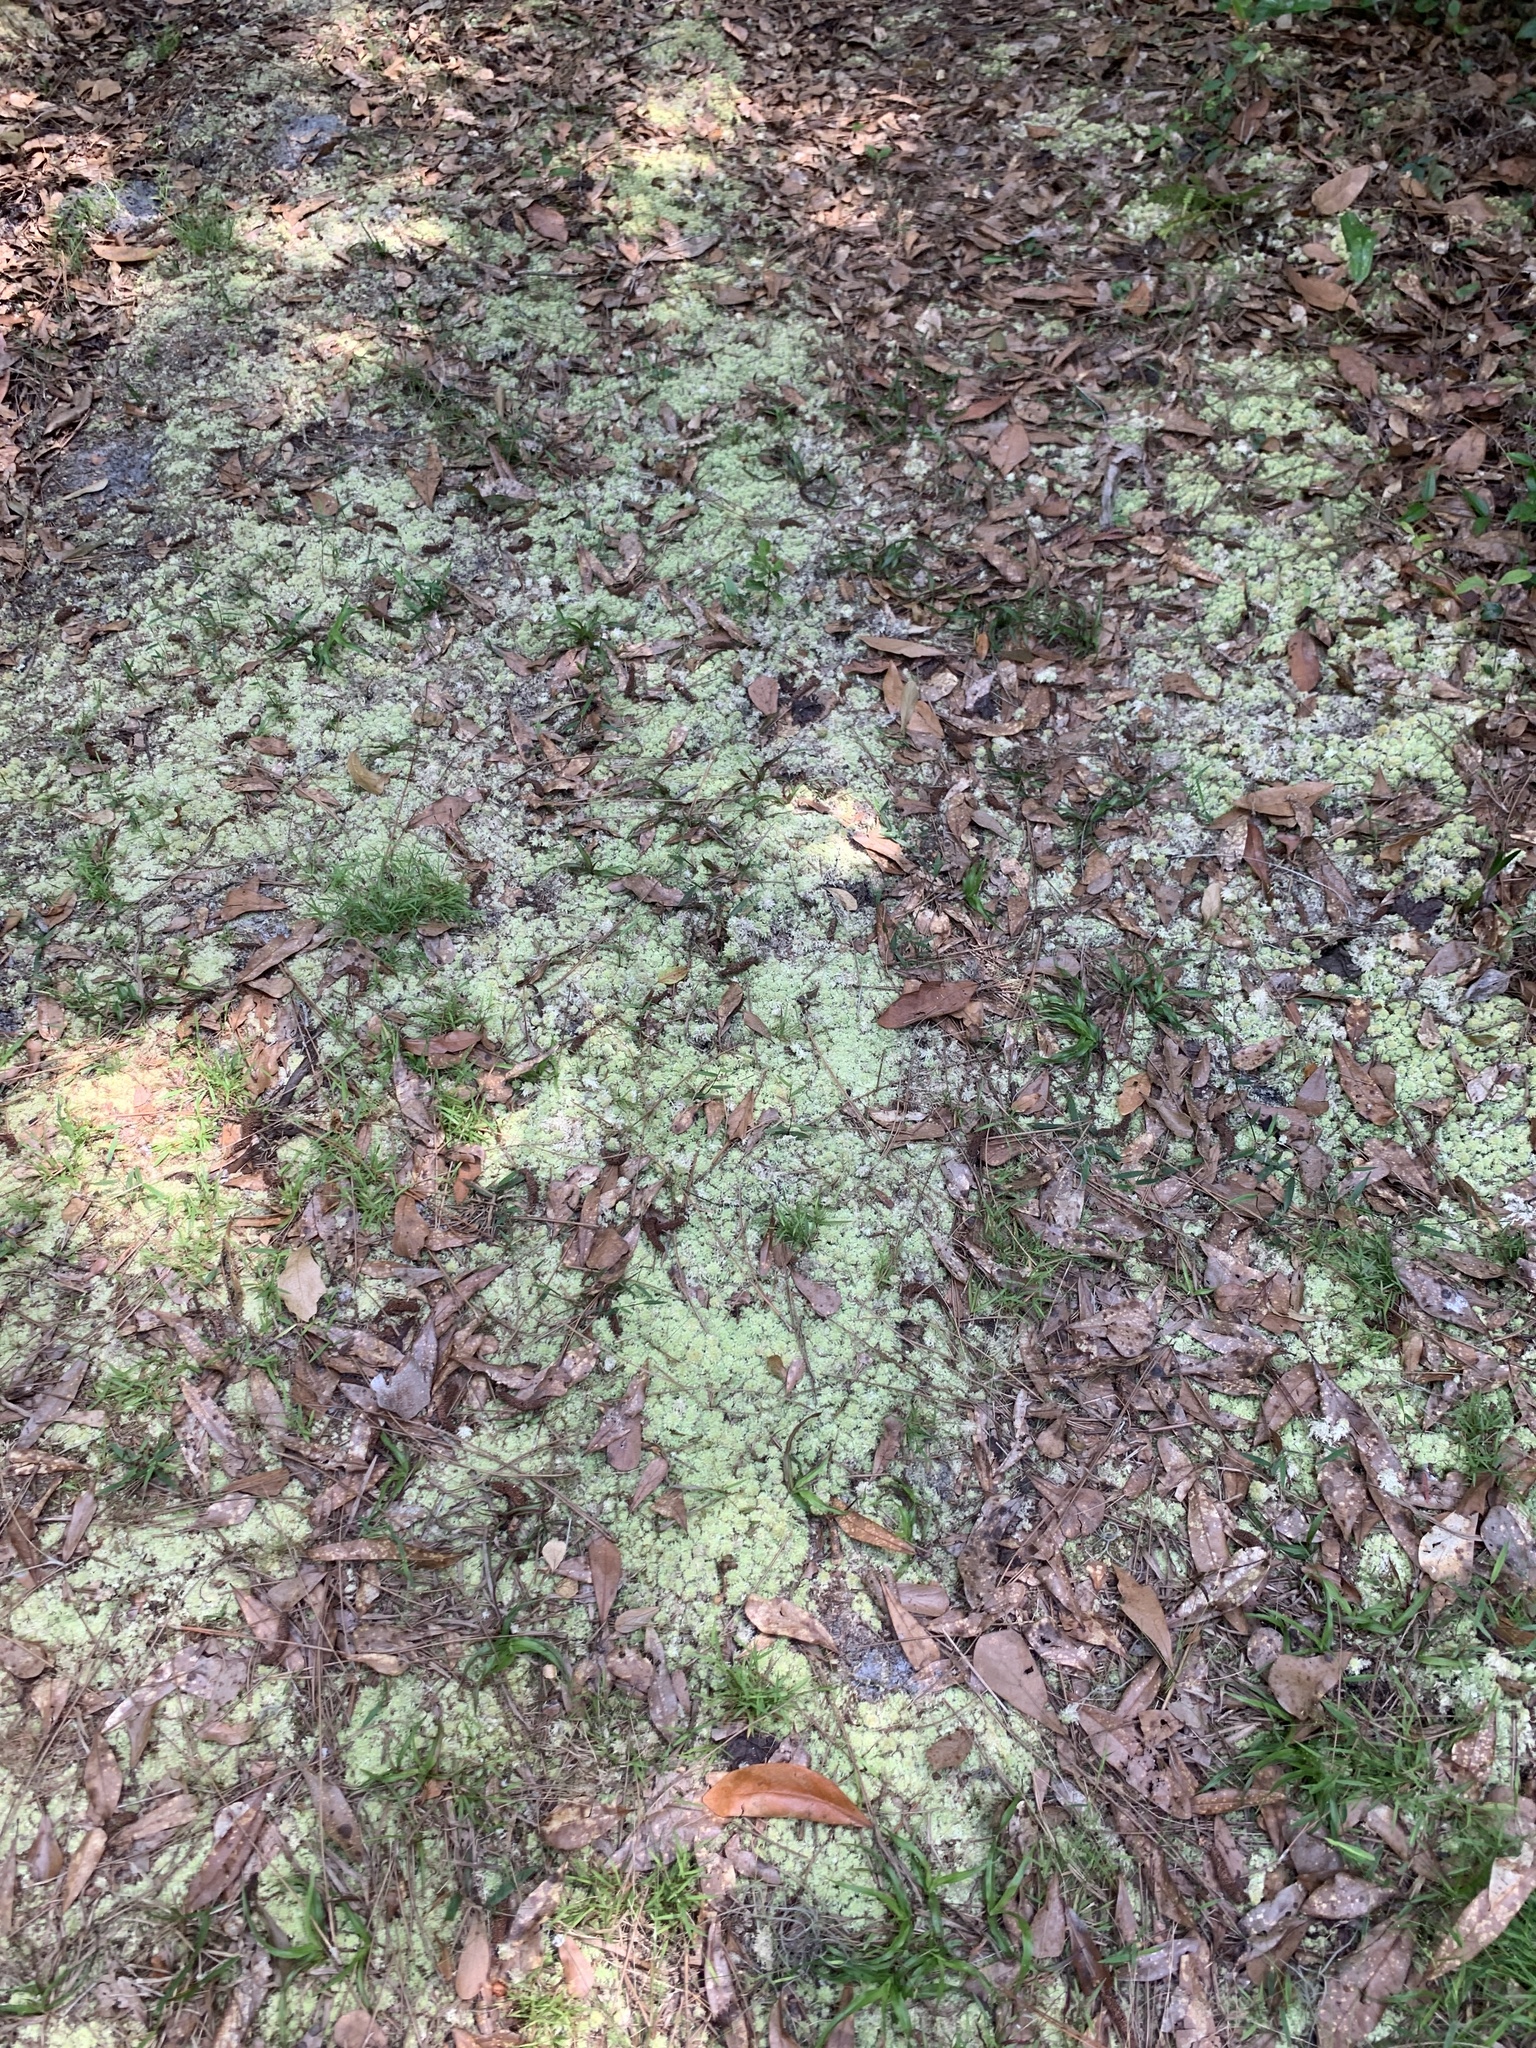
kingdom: Plantae
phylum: Bryophyta
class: Sphagnopsida
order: Sphagnales
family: Sphagnaceae
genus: Sphagnum
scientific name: Sphagnum strictum
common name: Pale bog-moss
